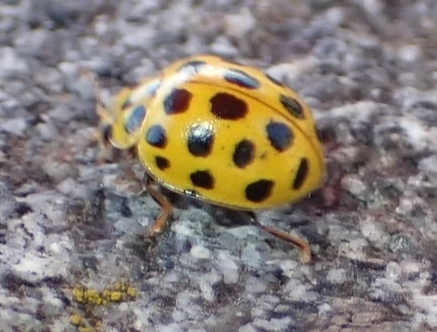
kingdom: Animalia
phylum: Arthropoda
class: Insecta
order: Coleoptera
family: Coccinellidae
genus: Psyllobora
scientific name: Psyllobora vigintiduopunctata
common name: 22-spot ladybird
